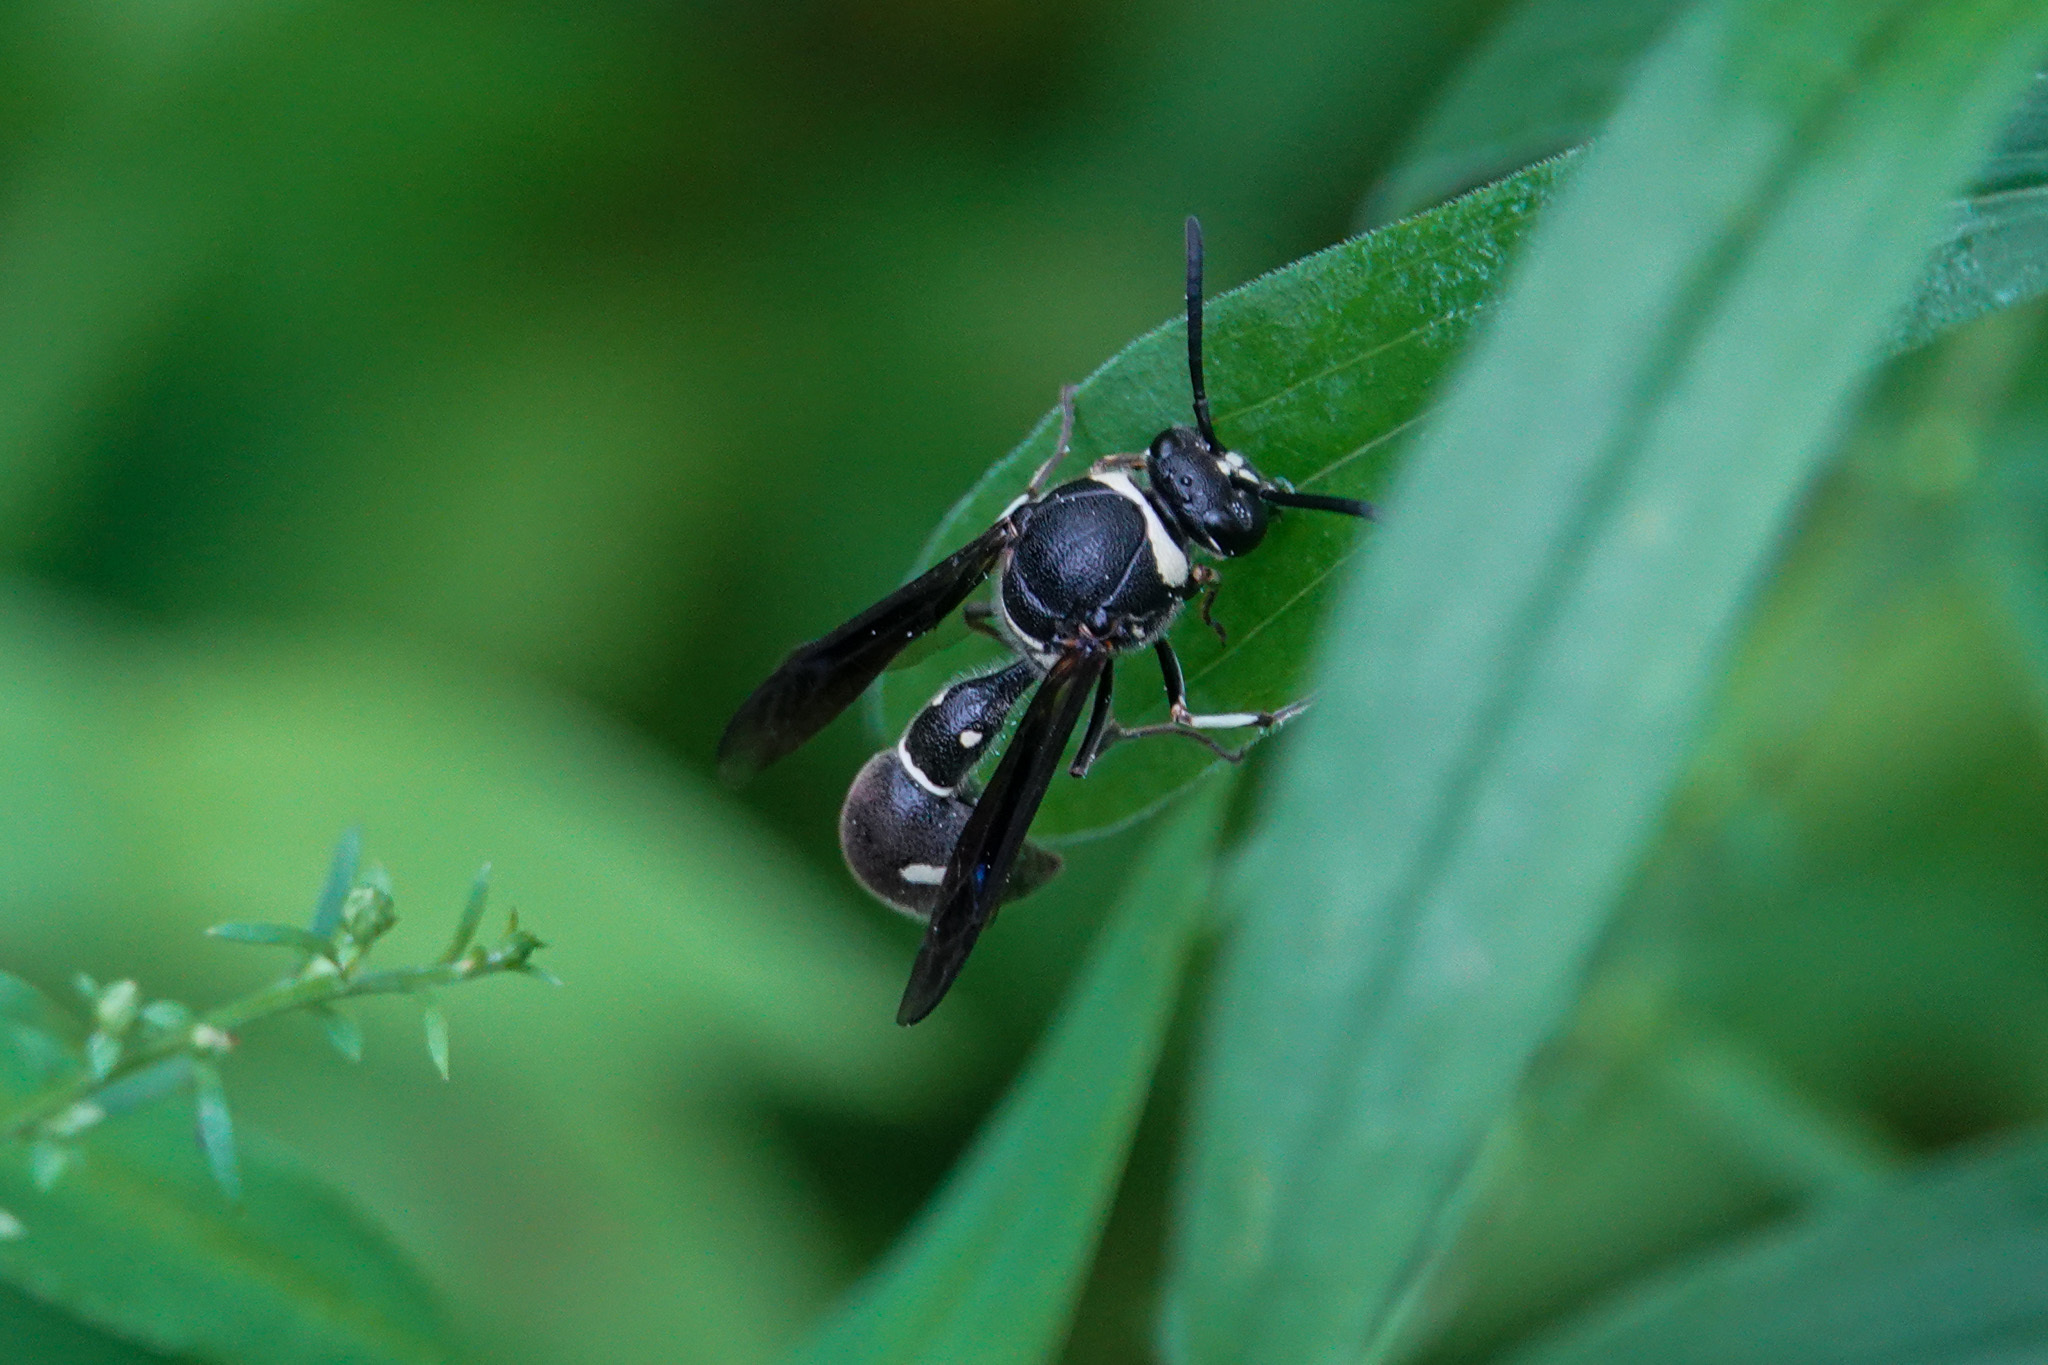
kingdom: Animalia
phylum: Arthropoda
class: Insecta
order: Hymenoptera
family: Vespidae
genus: Eumenes
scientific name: Eumenes fraternus
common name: Fraternal potter wasp
